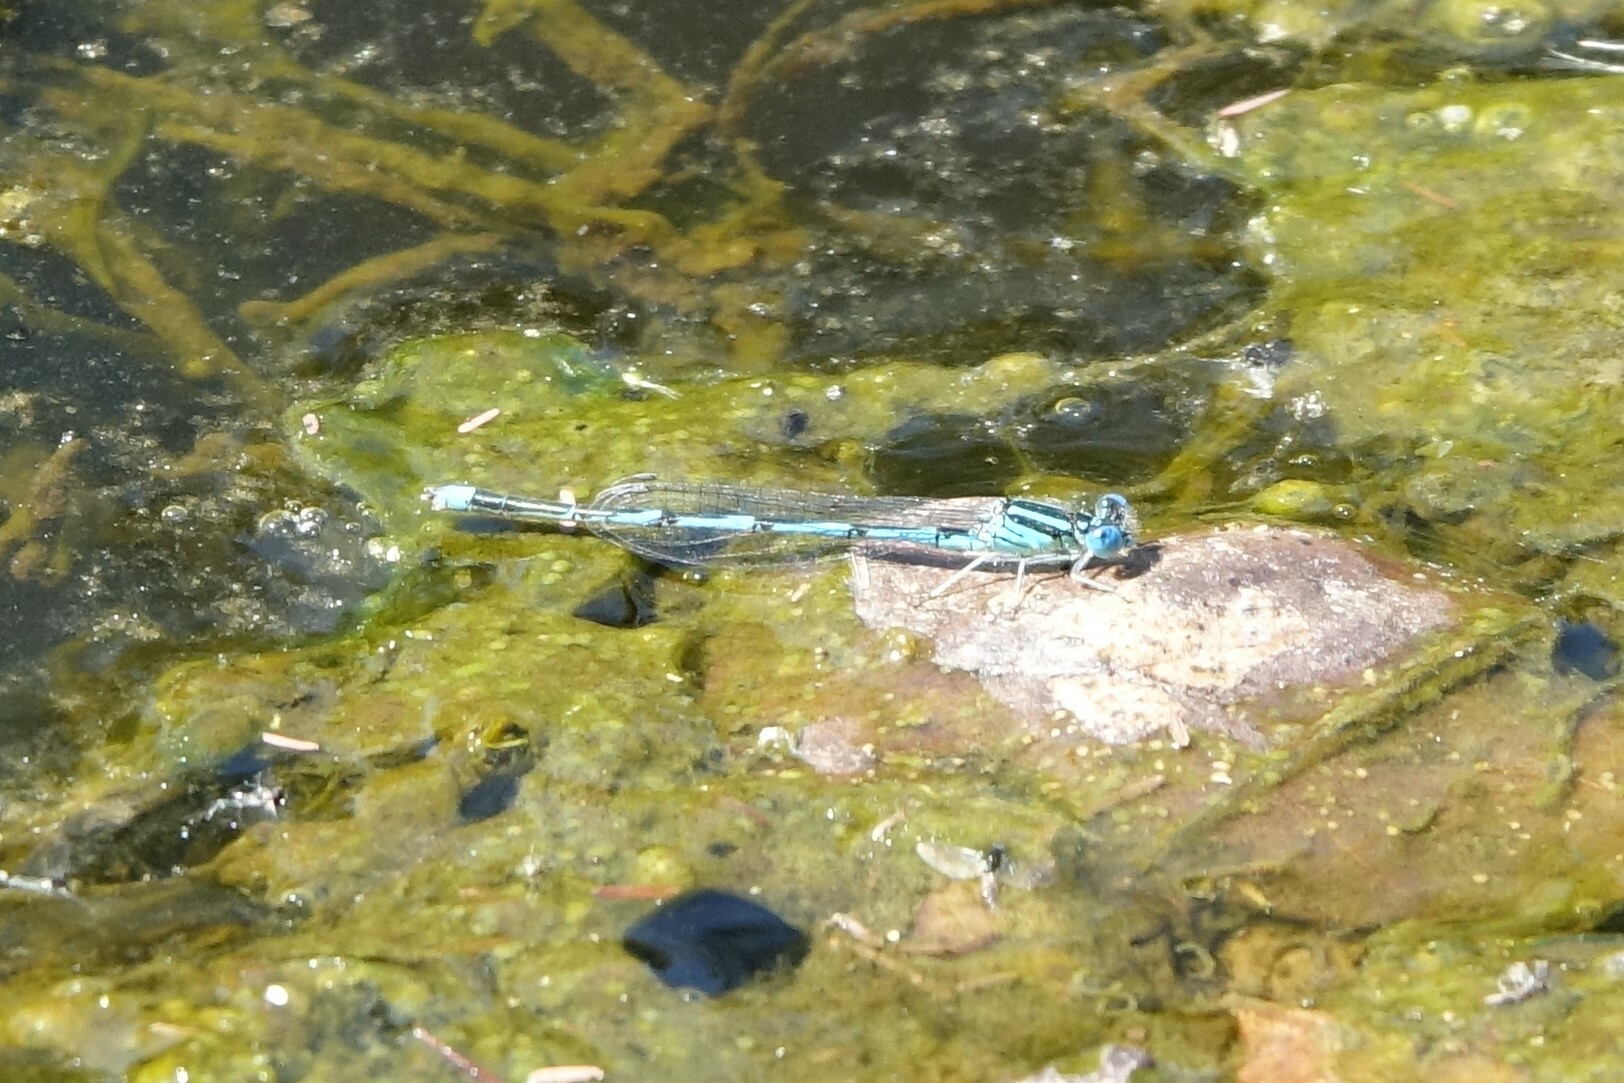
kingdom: Animalia
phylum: Arthropoda
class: Insecta
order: Odonata
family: Coenagrionidae
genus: Erythromma
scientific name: Erythromma lindenii
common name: Blue-eye
